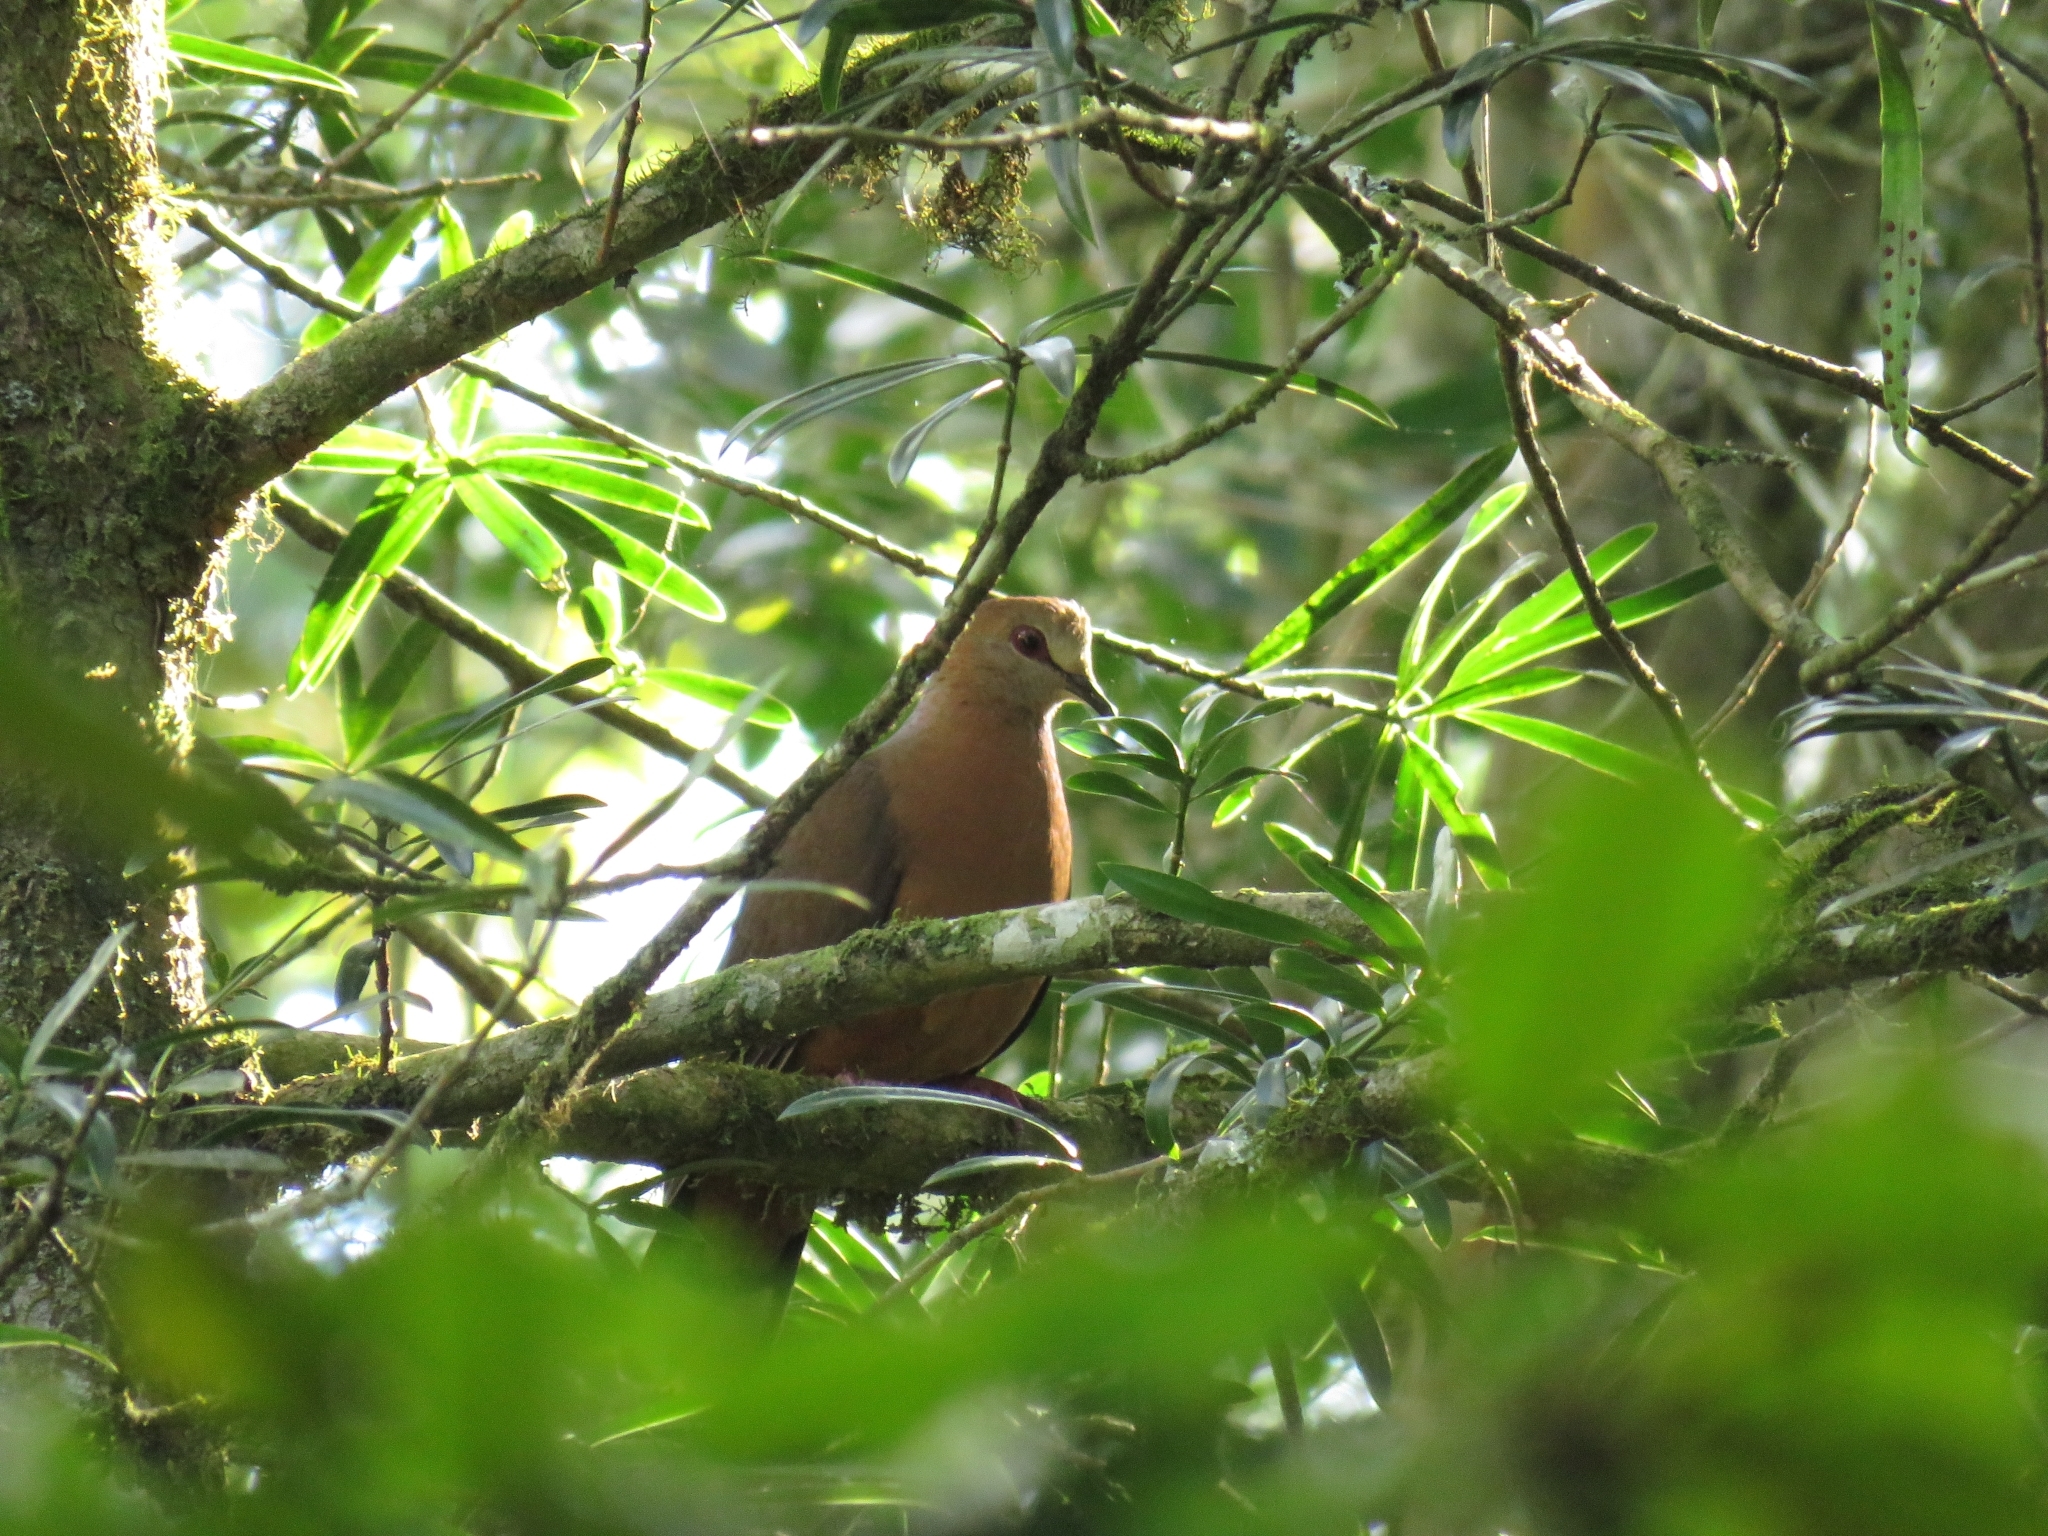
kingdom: Animalia
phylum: Chordata
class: Aves
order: Columbiformes
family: Columbidae
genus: Columba
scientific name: Columba larvata
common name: Lemon dove
